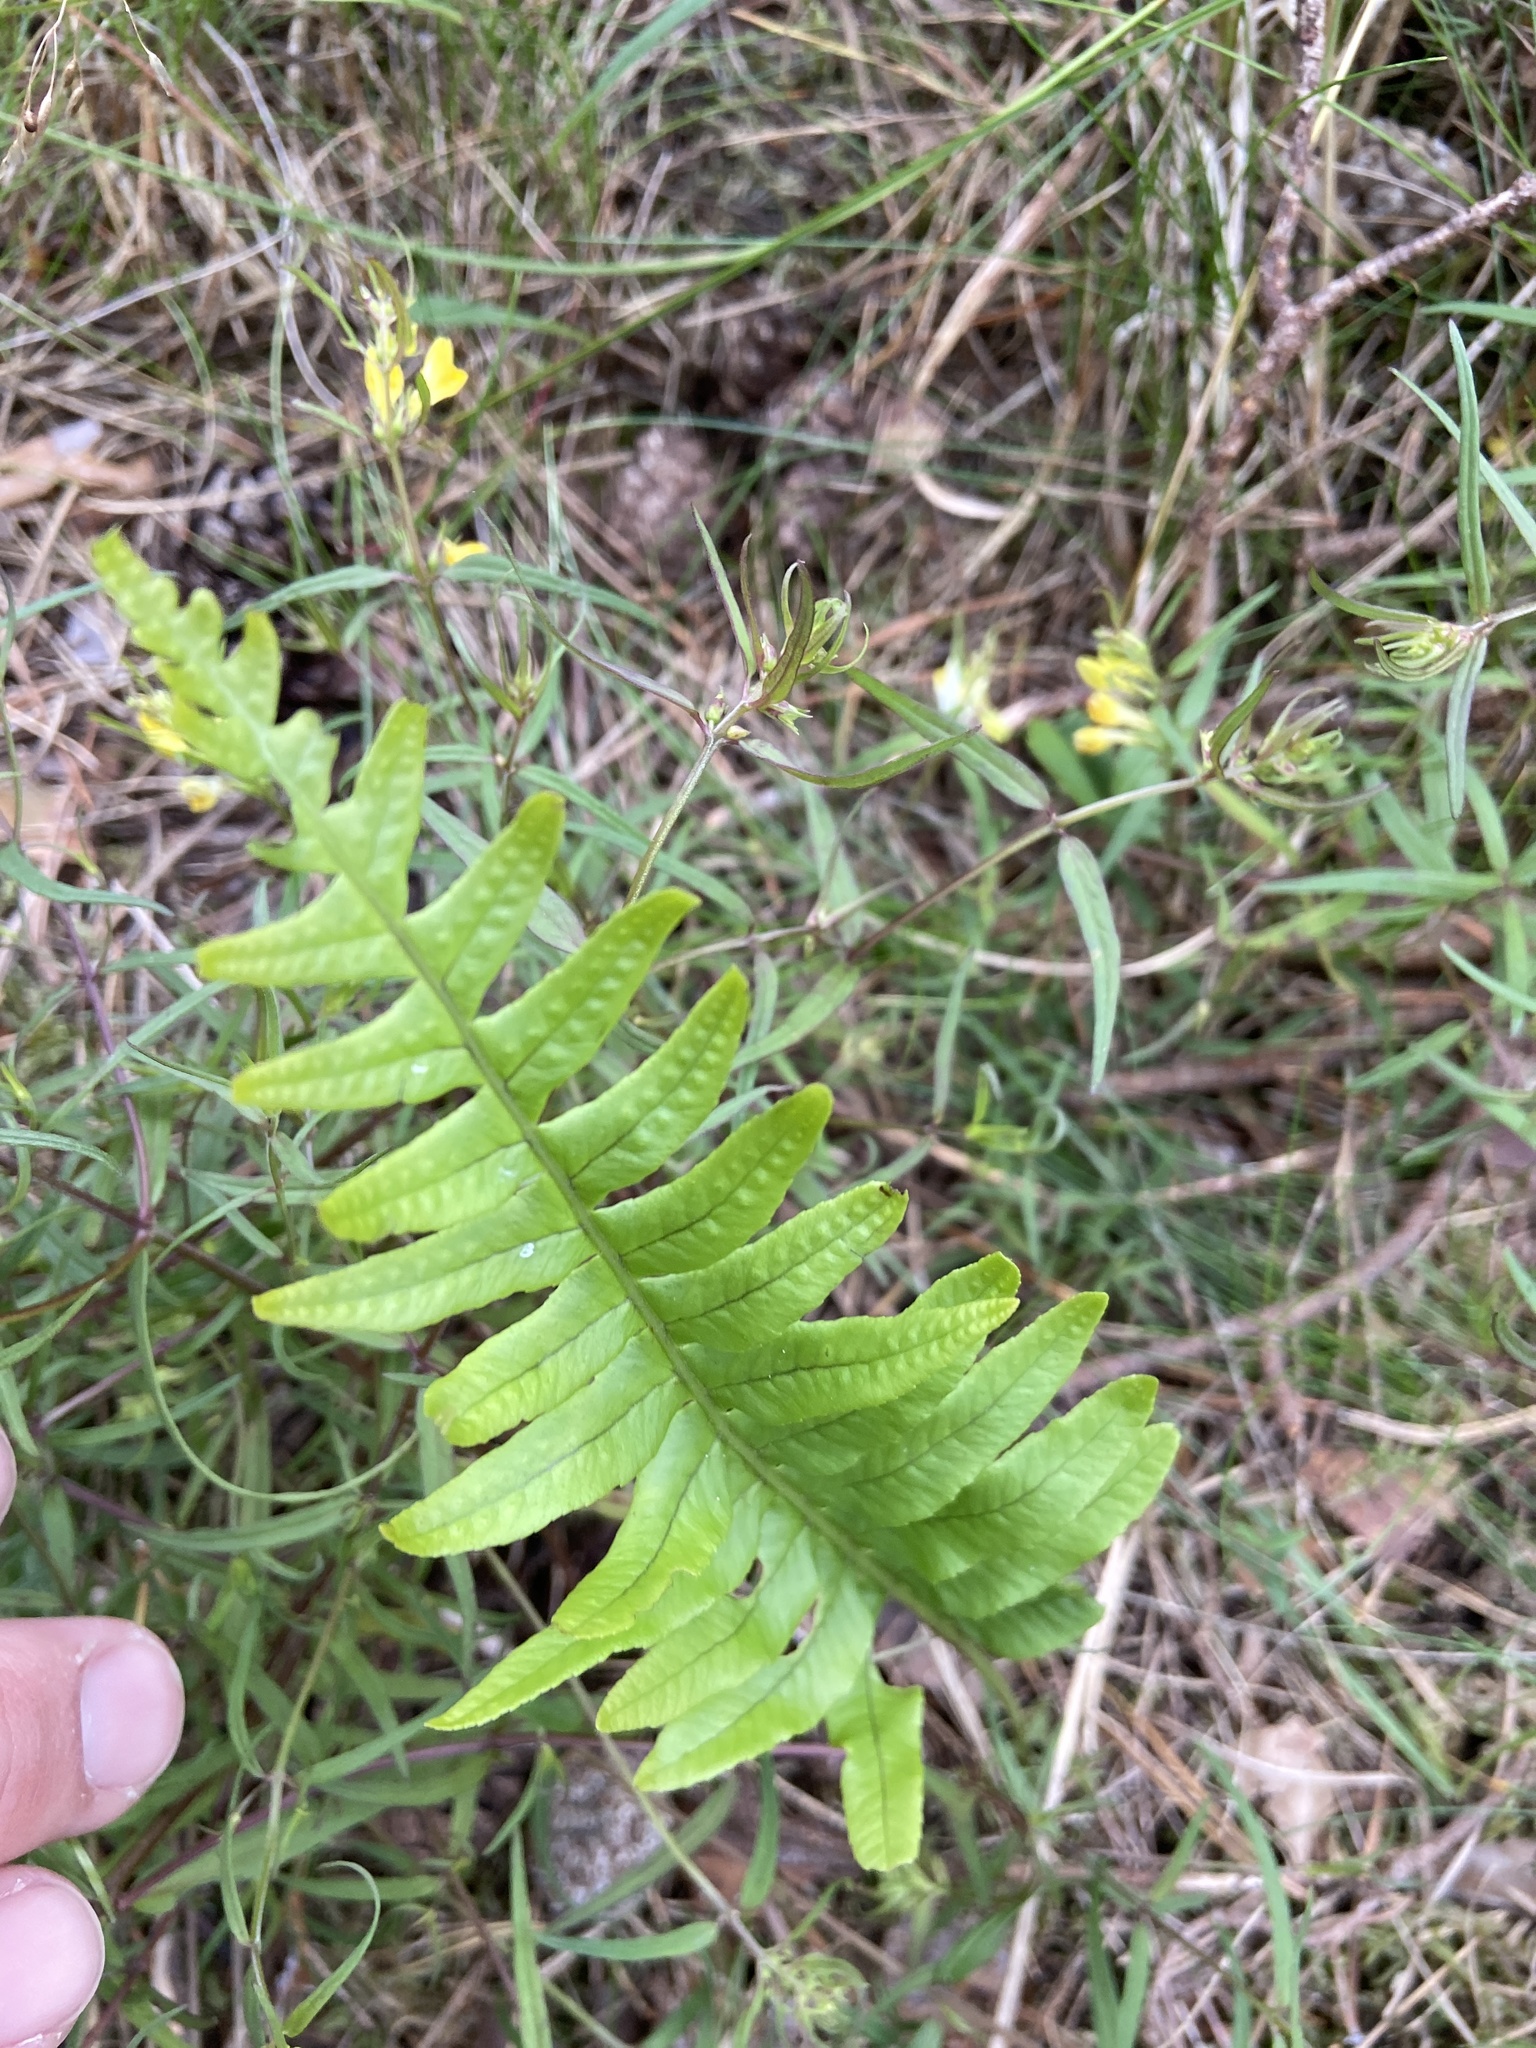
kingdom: Plantae
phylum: Tracheophyta
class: Polypodiopsida
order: Polypodiales
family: Polypodiaceae
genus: Polypodium
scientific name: Polypodium vulgare
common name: Common polypody
